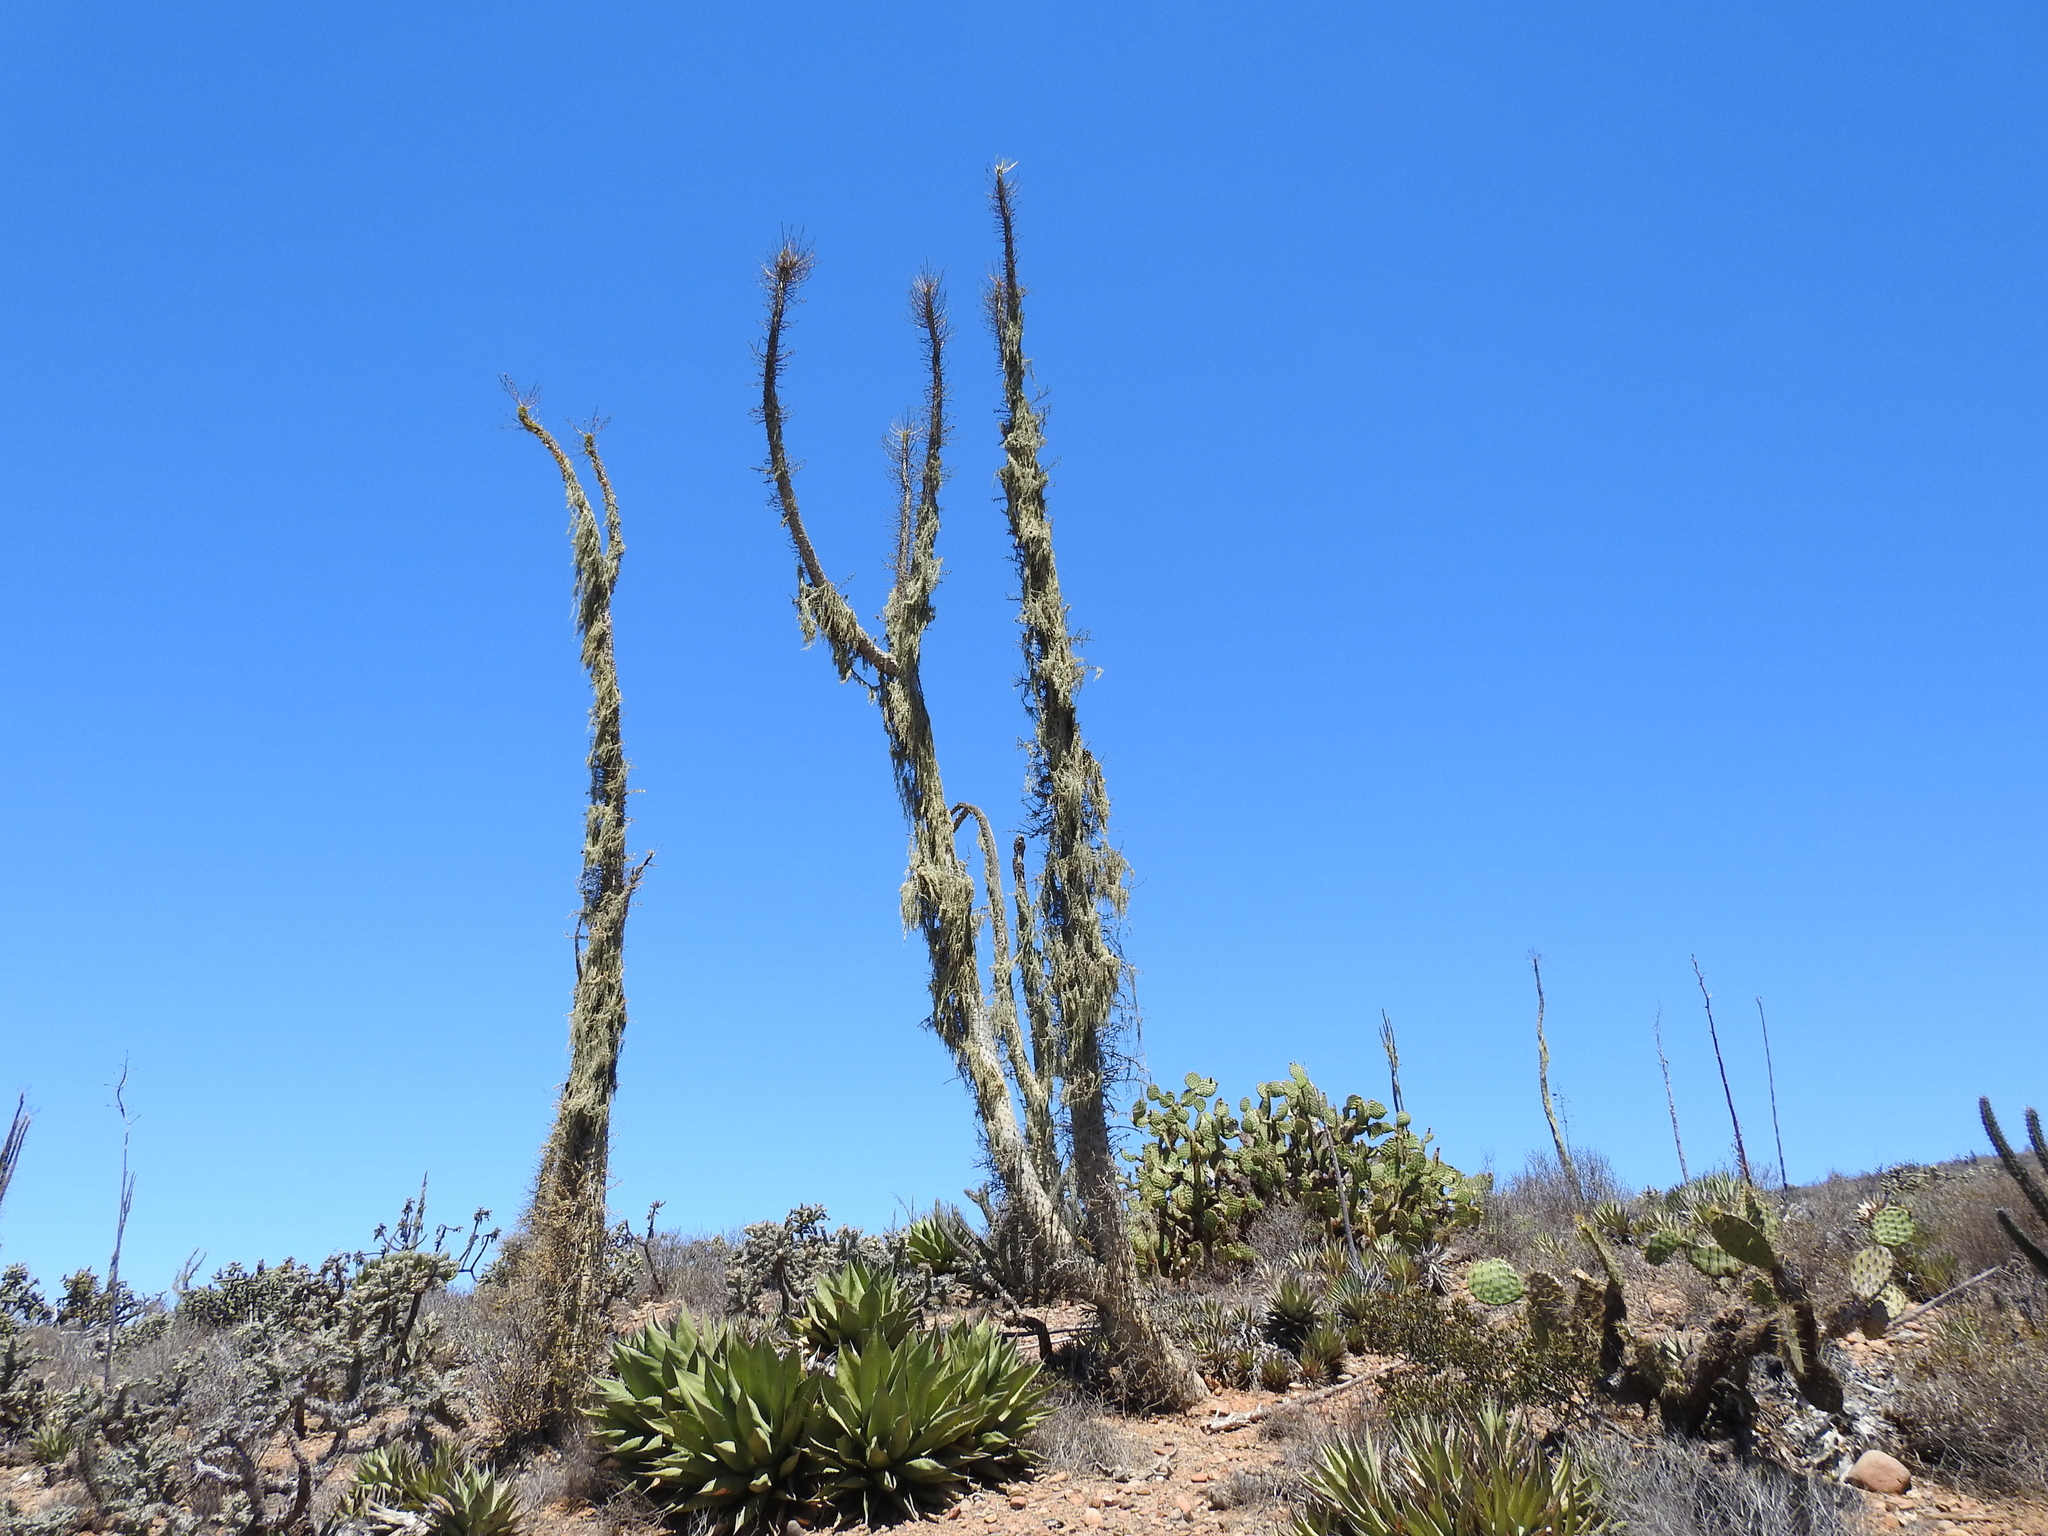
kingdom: Plantae
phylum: Tracheophyta
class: Magnoliopsida
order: Ericales
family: Fouquieriaceae
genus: Fouquieria
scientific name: Fouquieria columnaris
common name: Boojumtree
